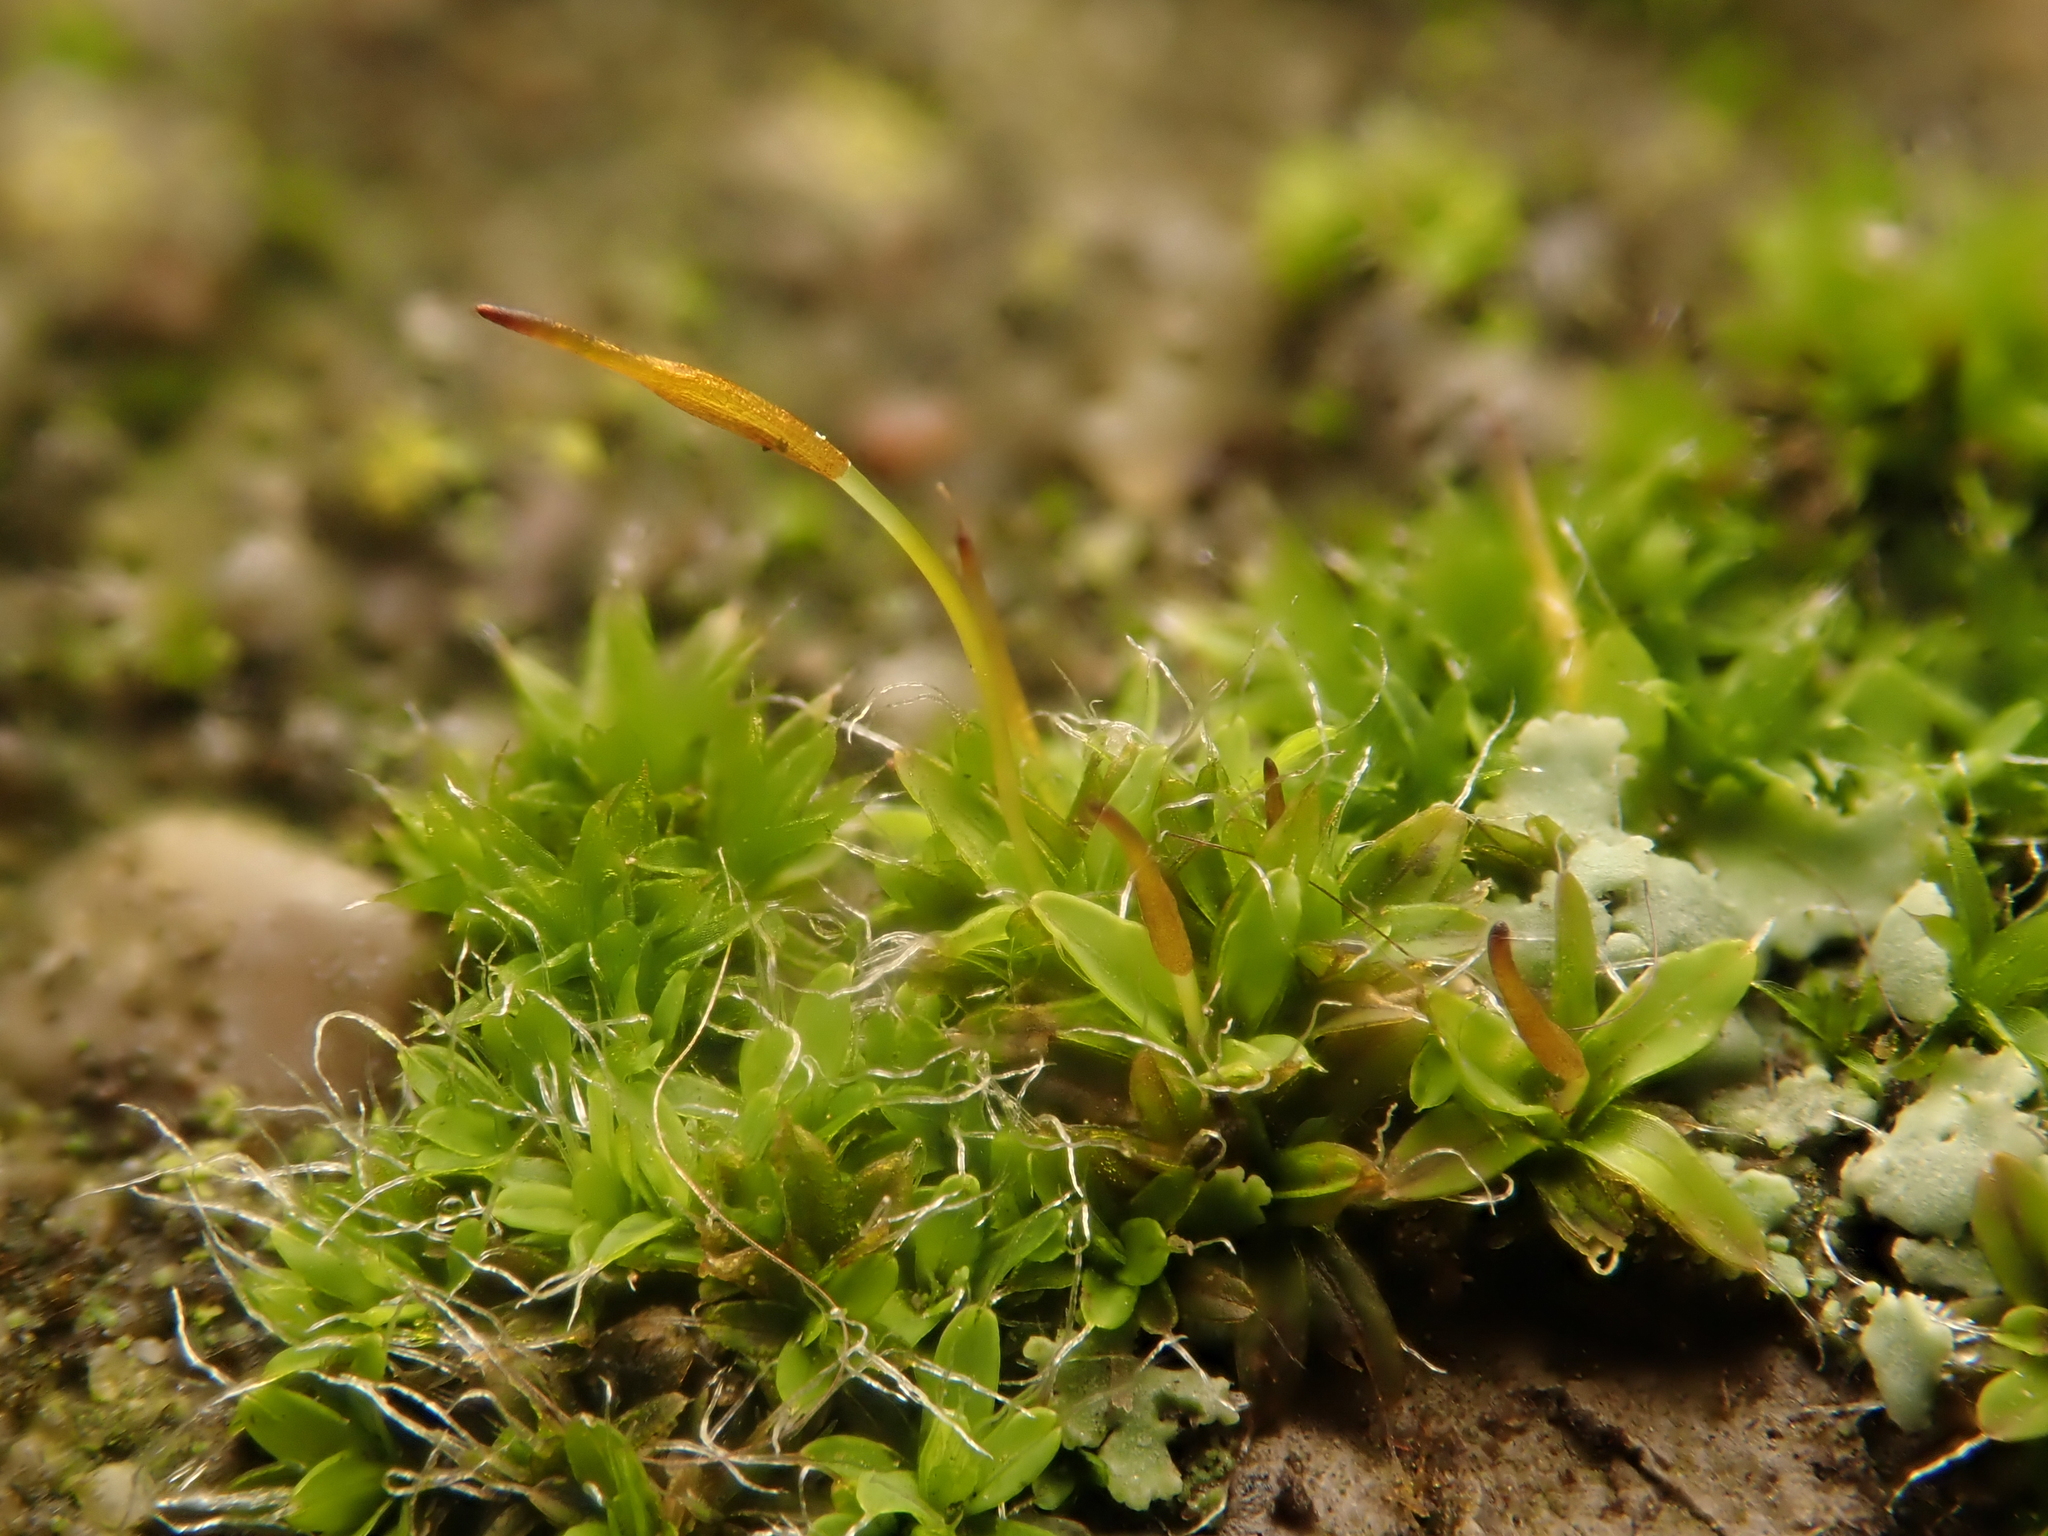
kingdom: Plantae
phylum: Bryophyta
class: Bryopsida
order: Pottiales
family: Pottiaceae
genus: Tortula
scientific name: Tortula muralis
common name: Wall screw-moss
